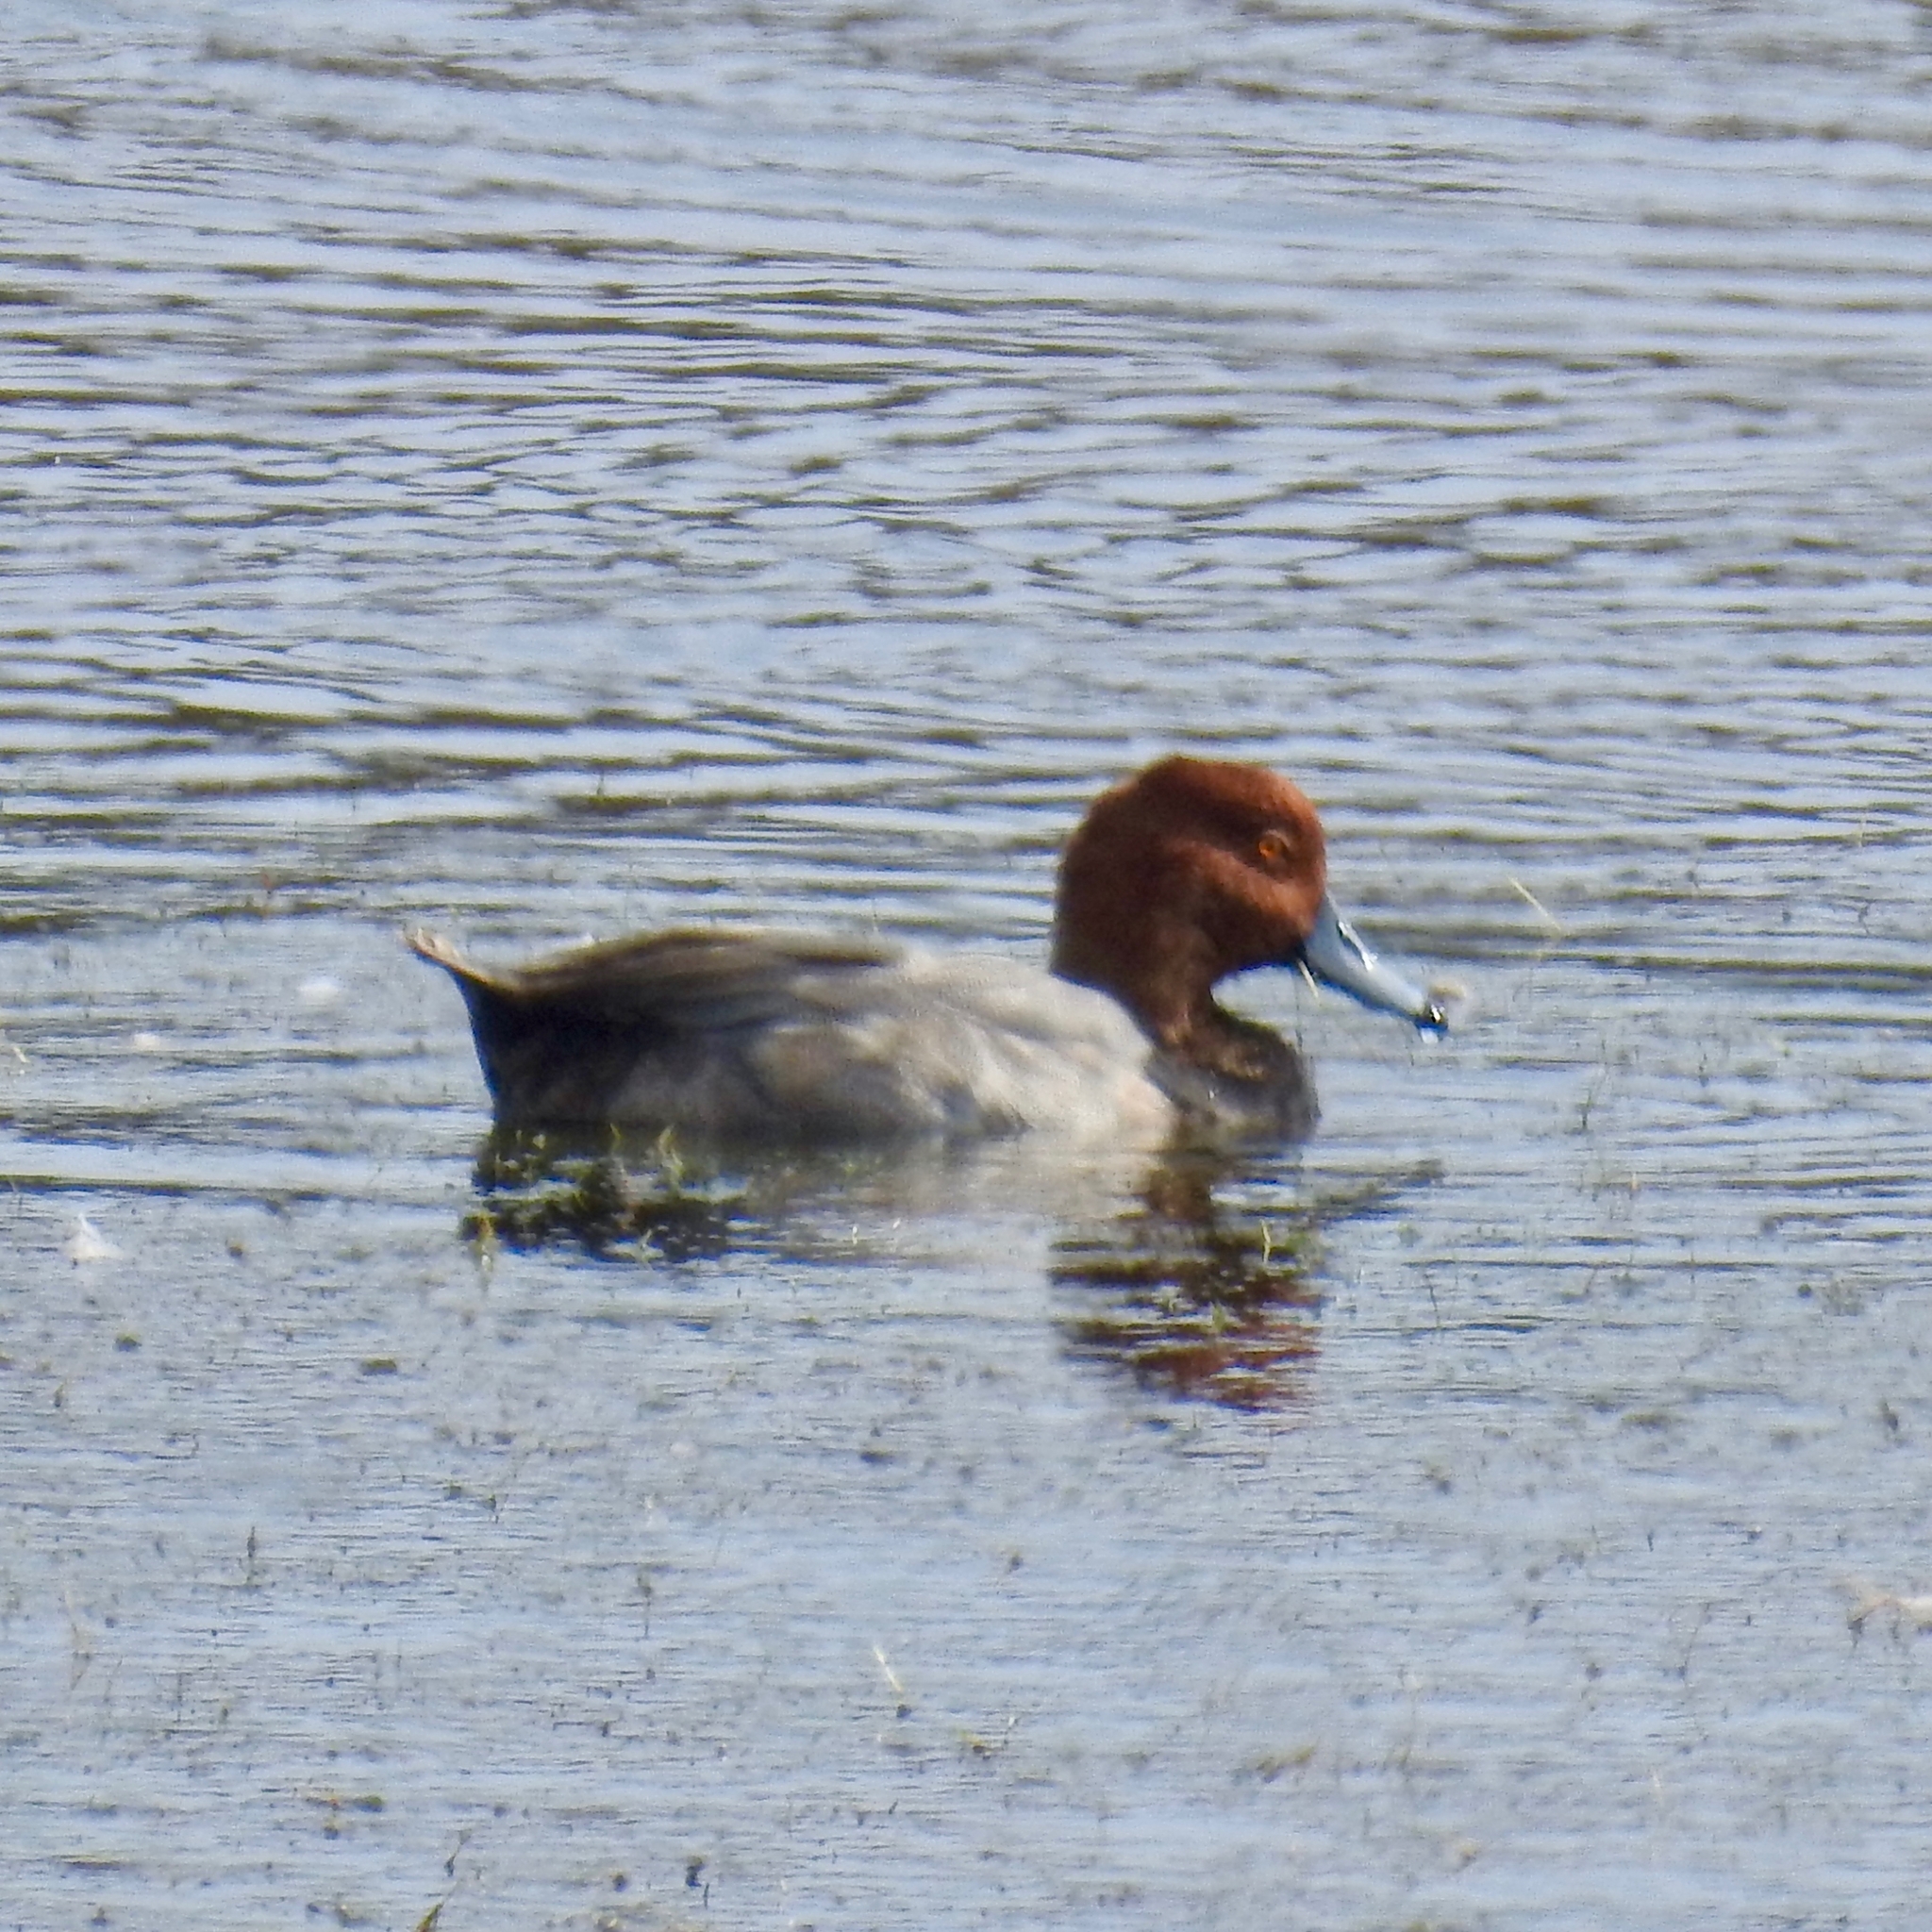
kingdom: Animalia
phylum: Chordata
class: Aves
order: Anseriformes
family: Anatidae
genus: Aythya
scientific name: Aythya americana
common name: Redhead
